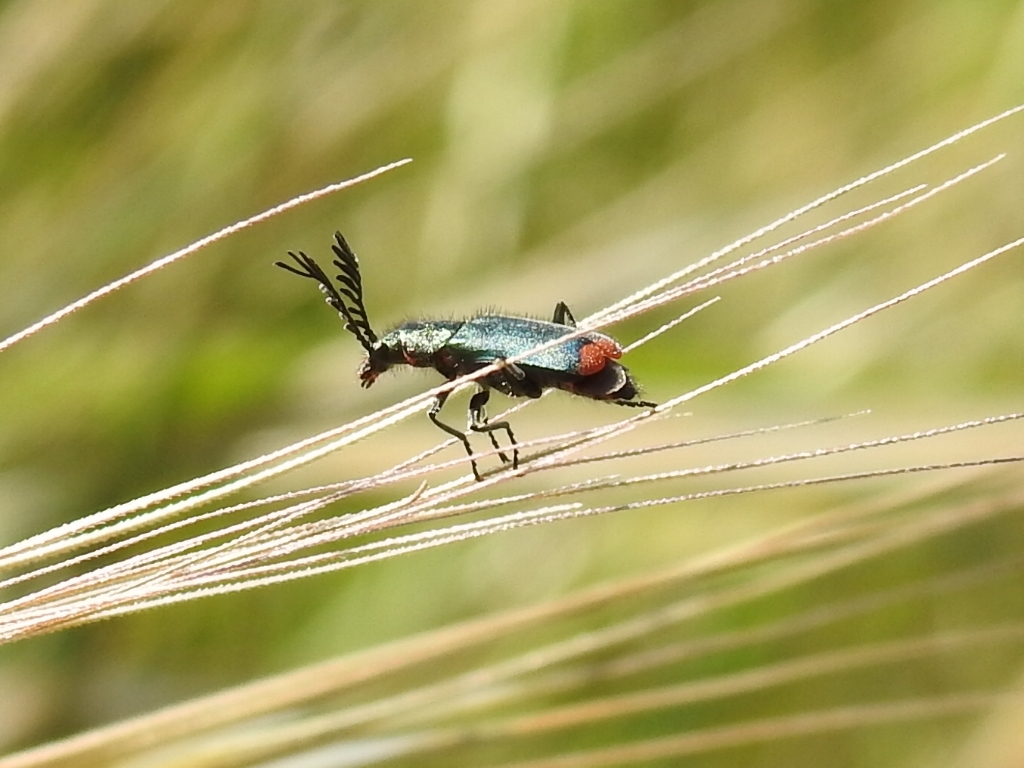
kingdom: Animalia
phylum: Arthropoda
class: Insecta
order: Coleoptera
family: Malachiidae
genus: Haplomalachius
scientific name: Haplomalachius flabellatus
